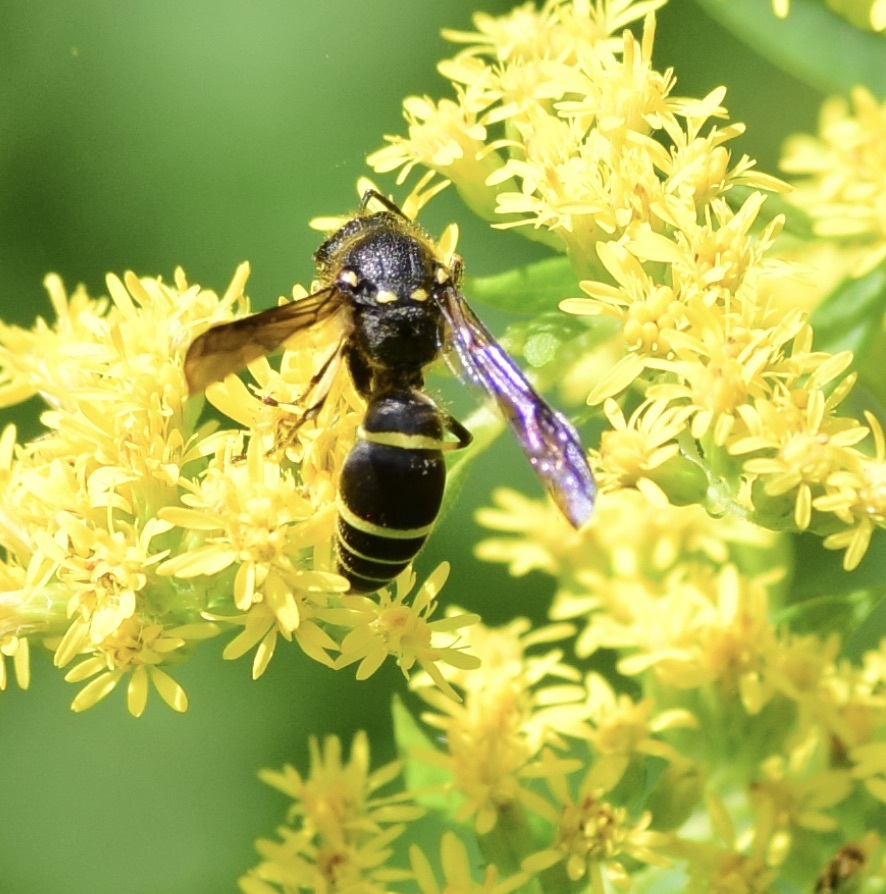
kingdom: Animalia
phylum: Arthropoda
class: Insecta
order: Hymenoptera
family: Vespidae
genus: Ancistrocerus
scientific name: Ancistrocerus
